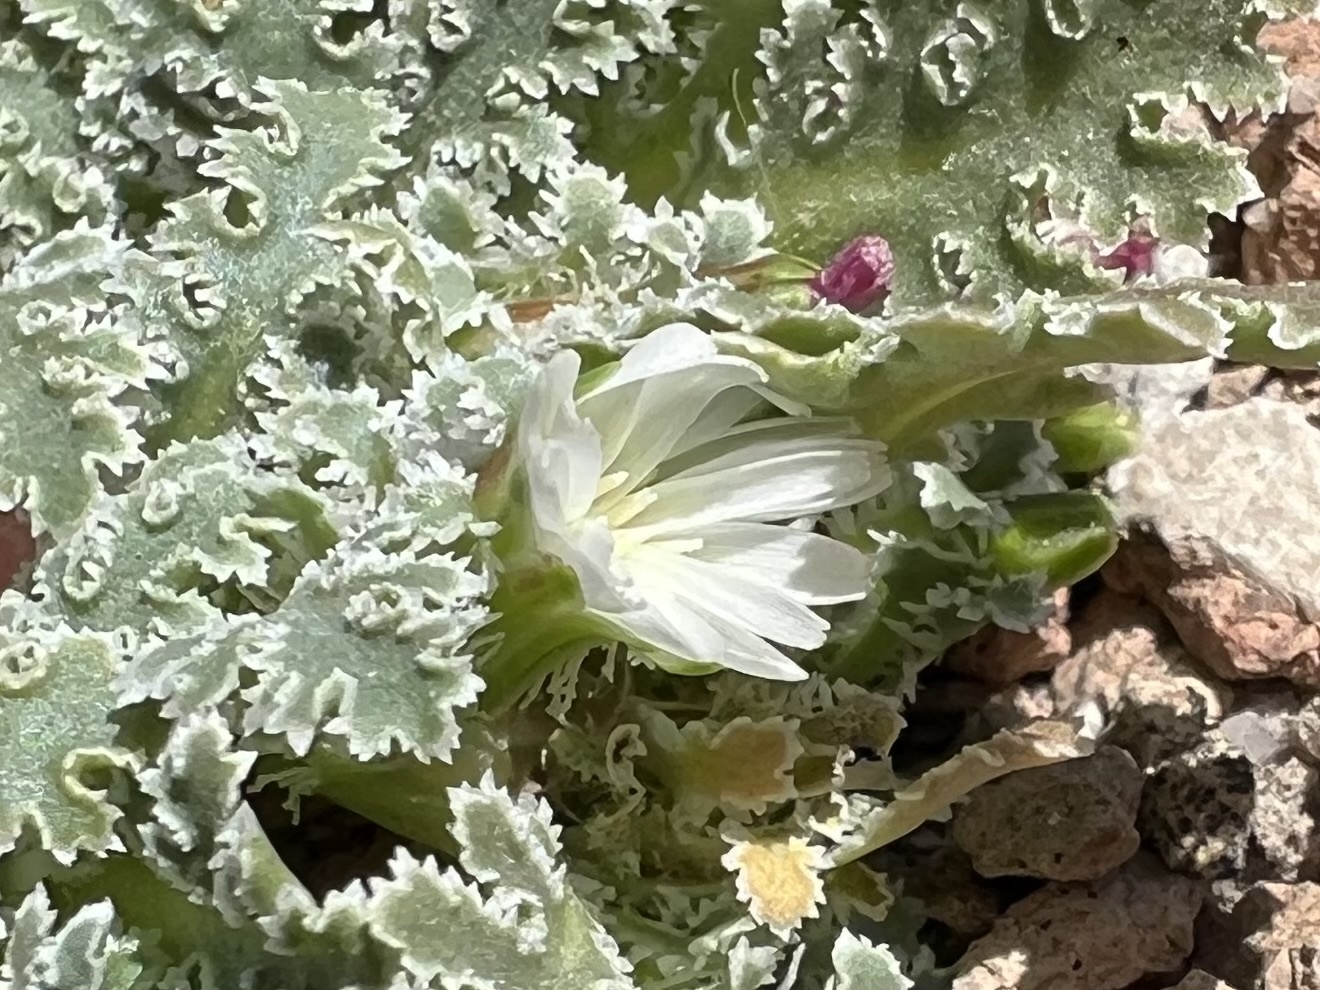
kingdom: Plantae
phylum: Tracheophyta
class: Magnoliopsida
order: Asterales
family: Asteraceae
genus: Glyptopleura
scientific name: Glyptopleura marginata
